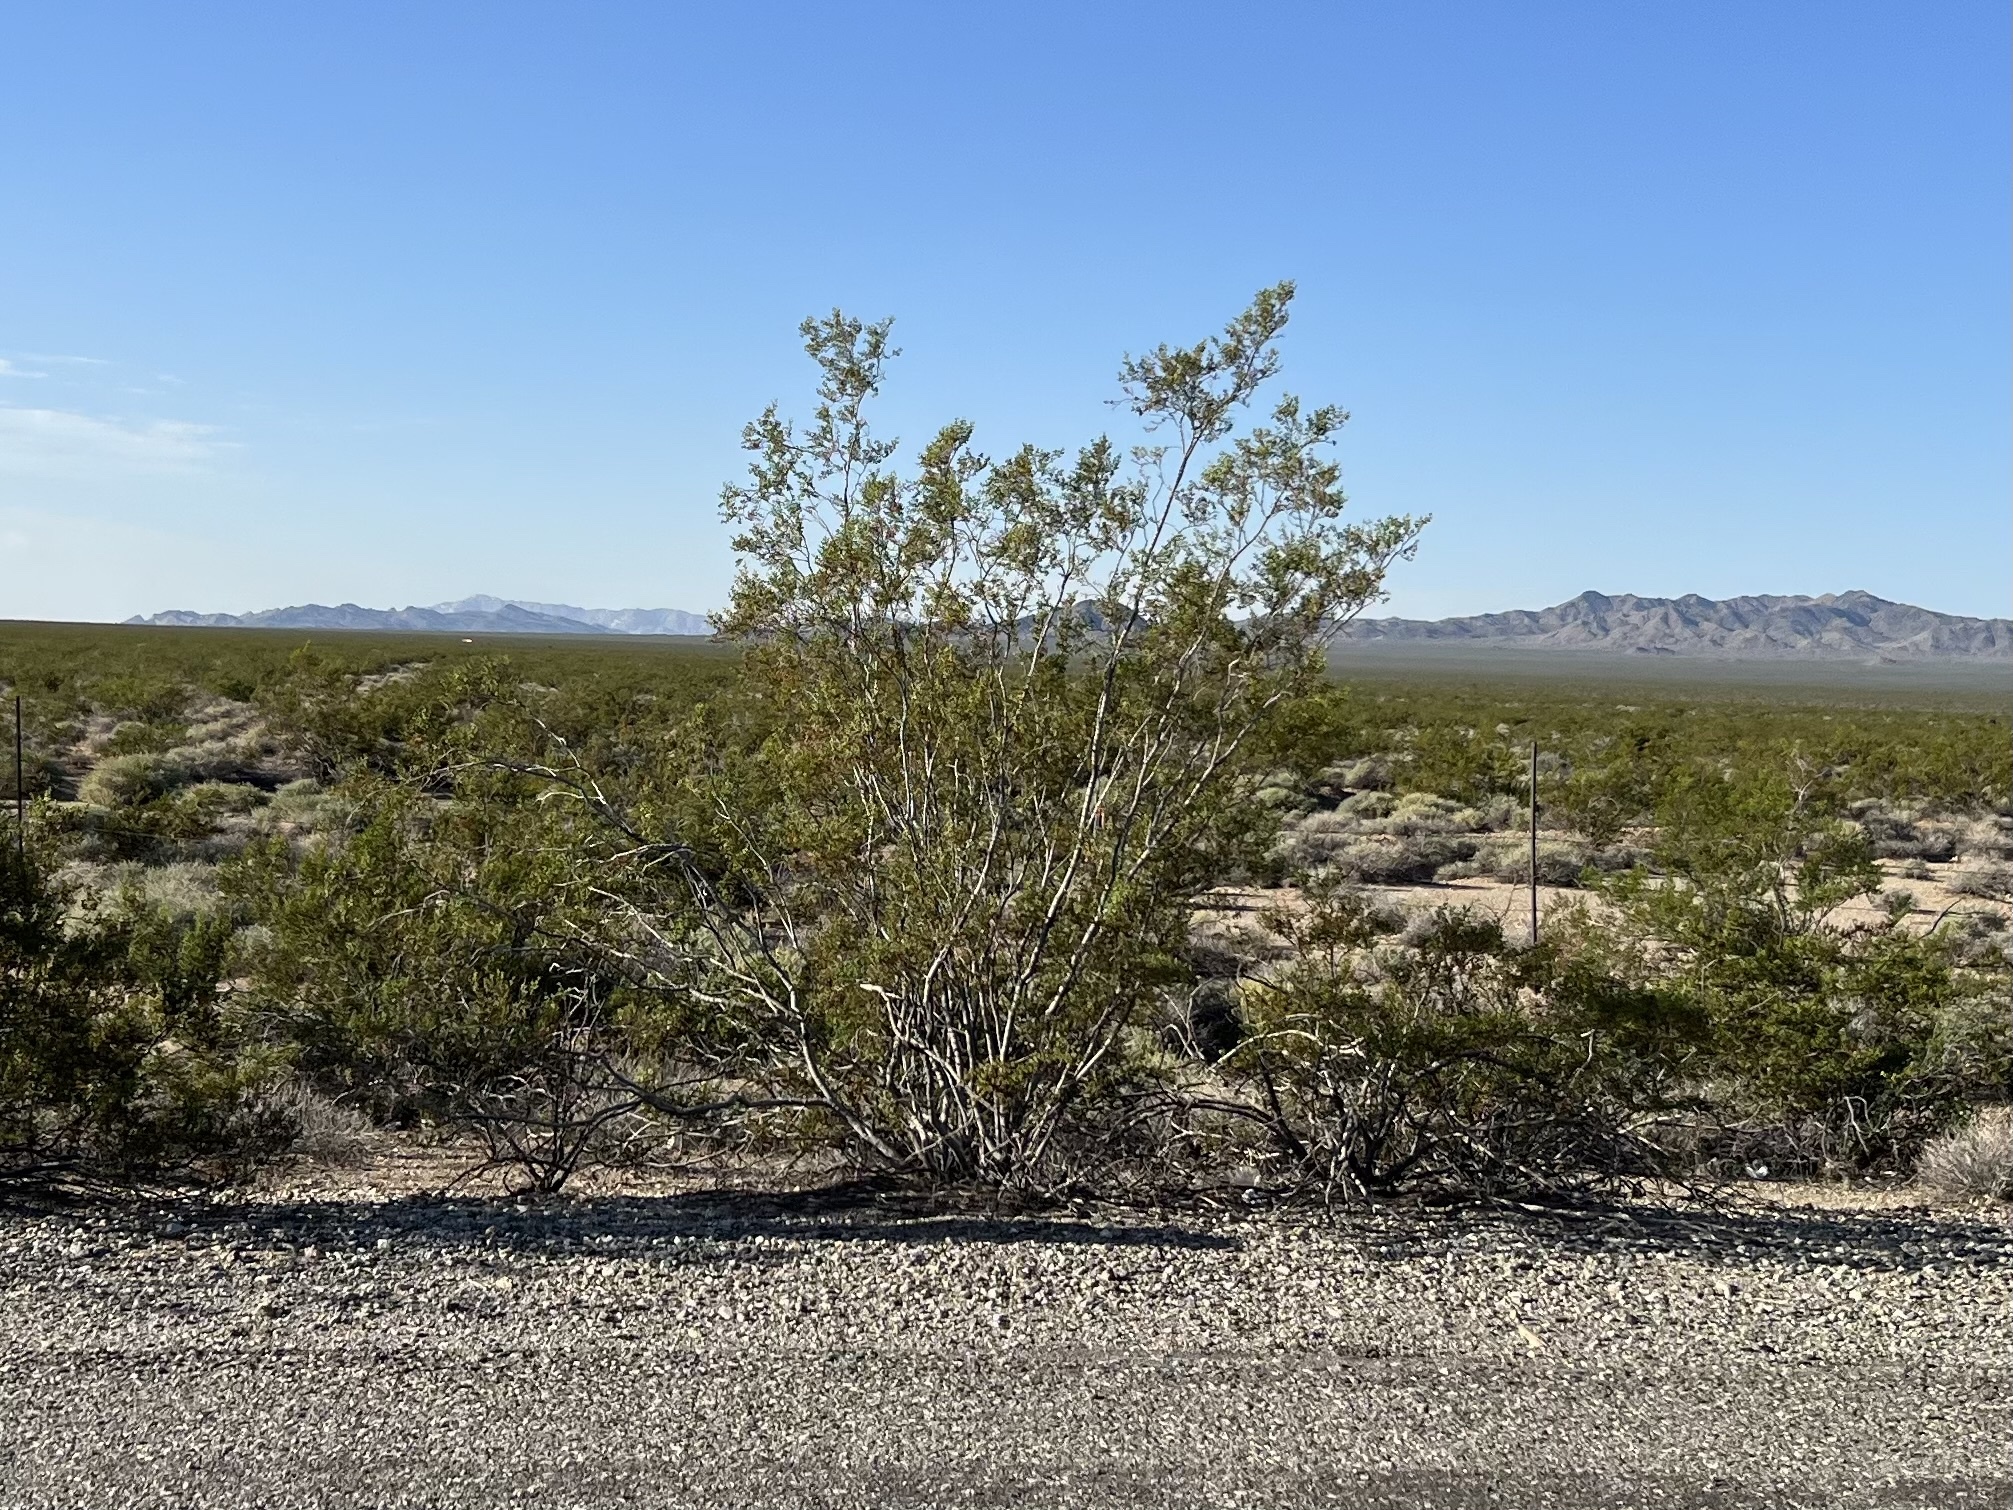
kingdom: Plantae
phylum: Tracheophyta
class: Magnoliopsida
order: Zygophyllales
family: Zygophyllaceae
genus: Larrea
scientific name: Larrea tridentata
